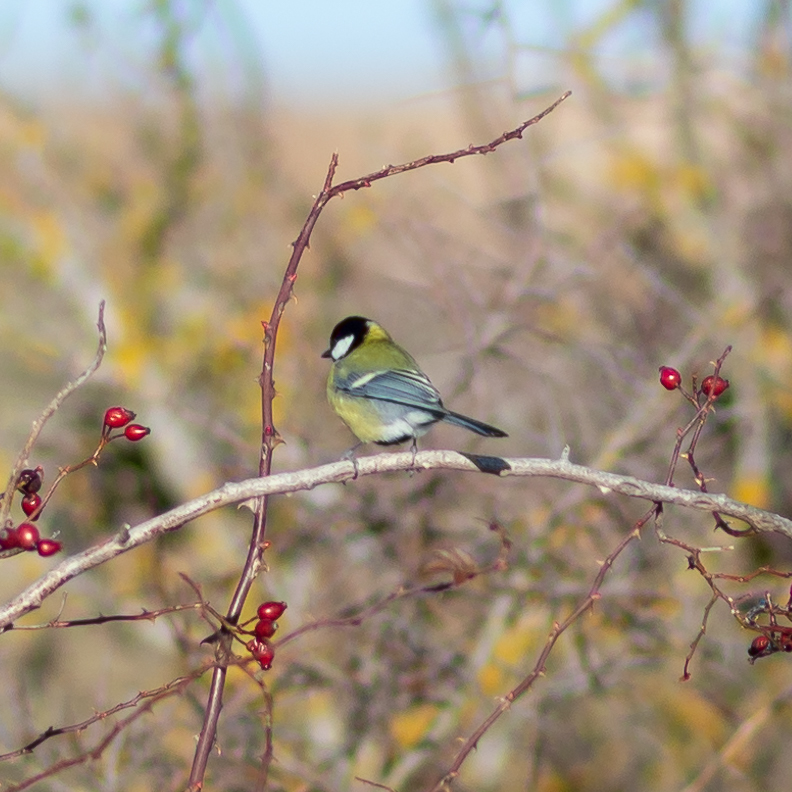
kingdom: Animalia
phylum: Chordata
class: Aves
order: Passeriformes
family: Paridae
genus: Parus
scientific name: Parus major
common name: Great tit
